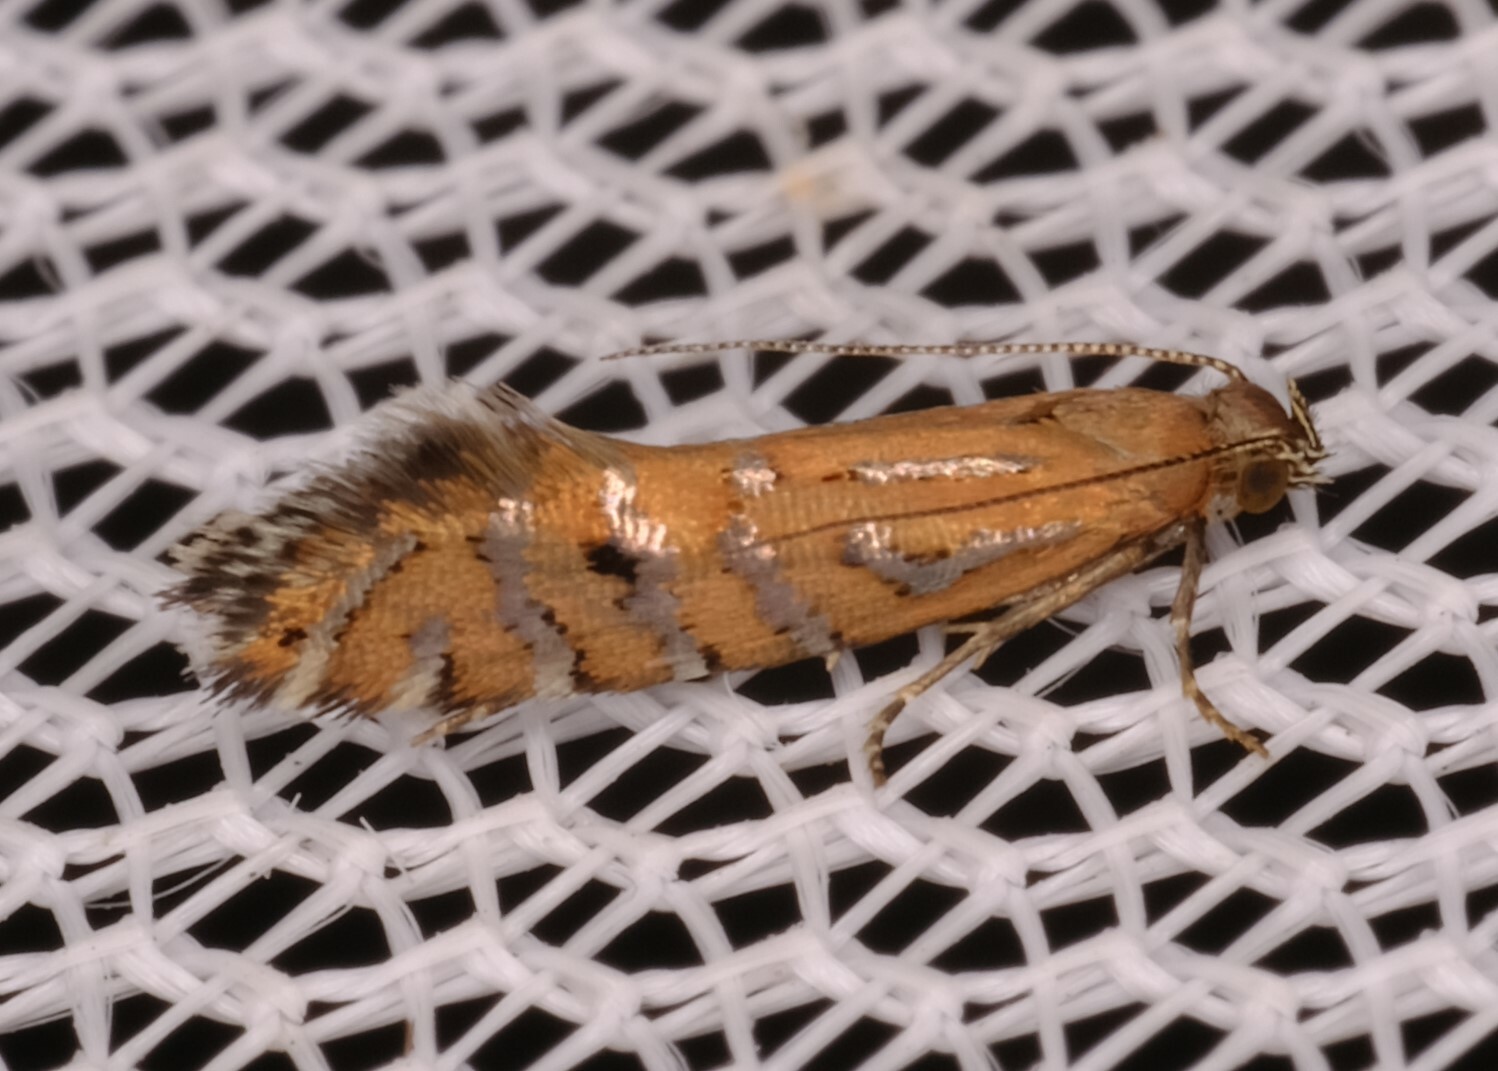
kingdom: Animalia
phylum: Arthropoda
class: Insecta
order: Lepidoptera
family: Glyphipterigidae
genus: Glyphipterix
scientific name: Glyphipterix perimetalla
